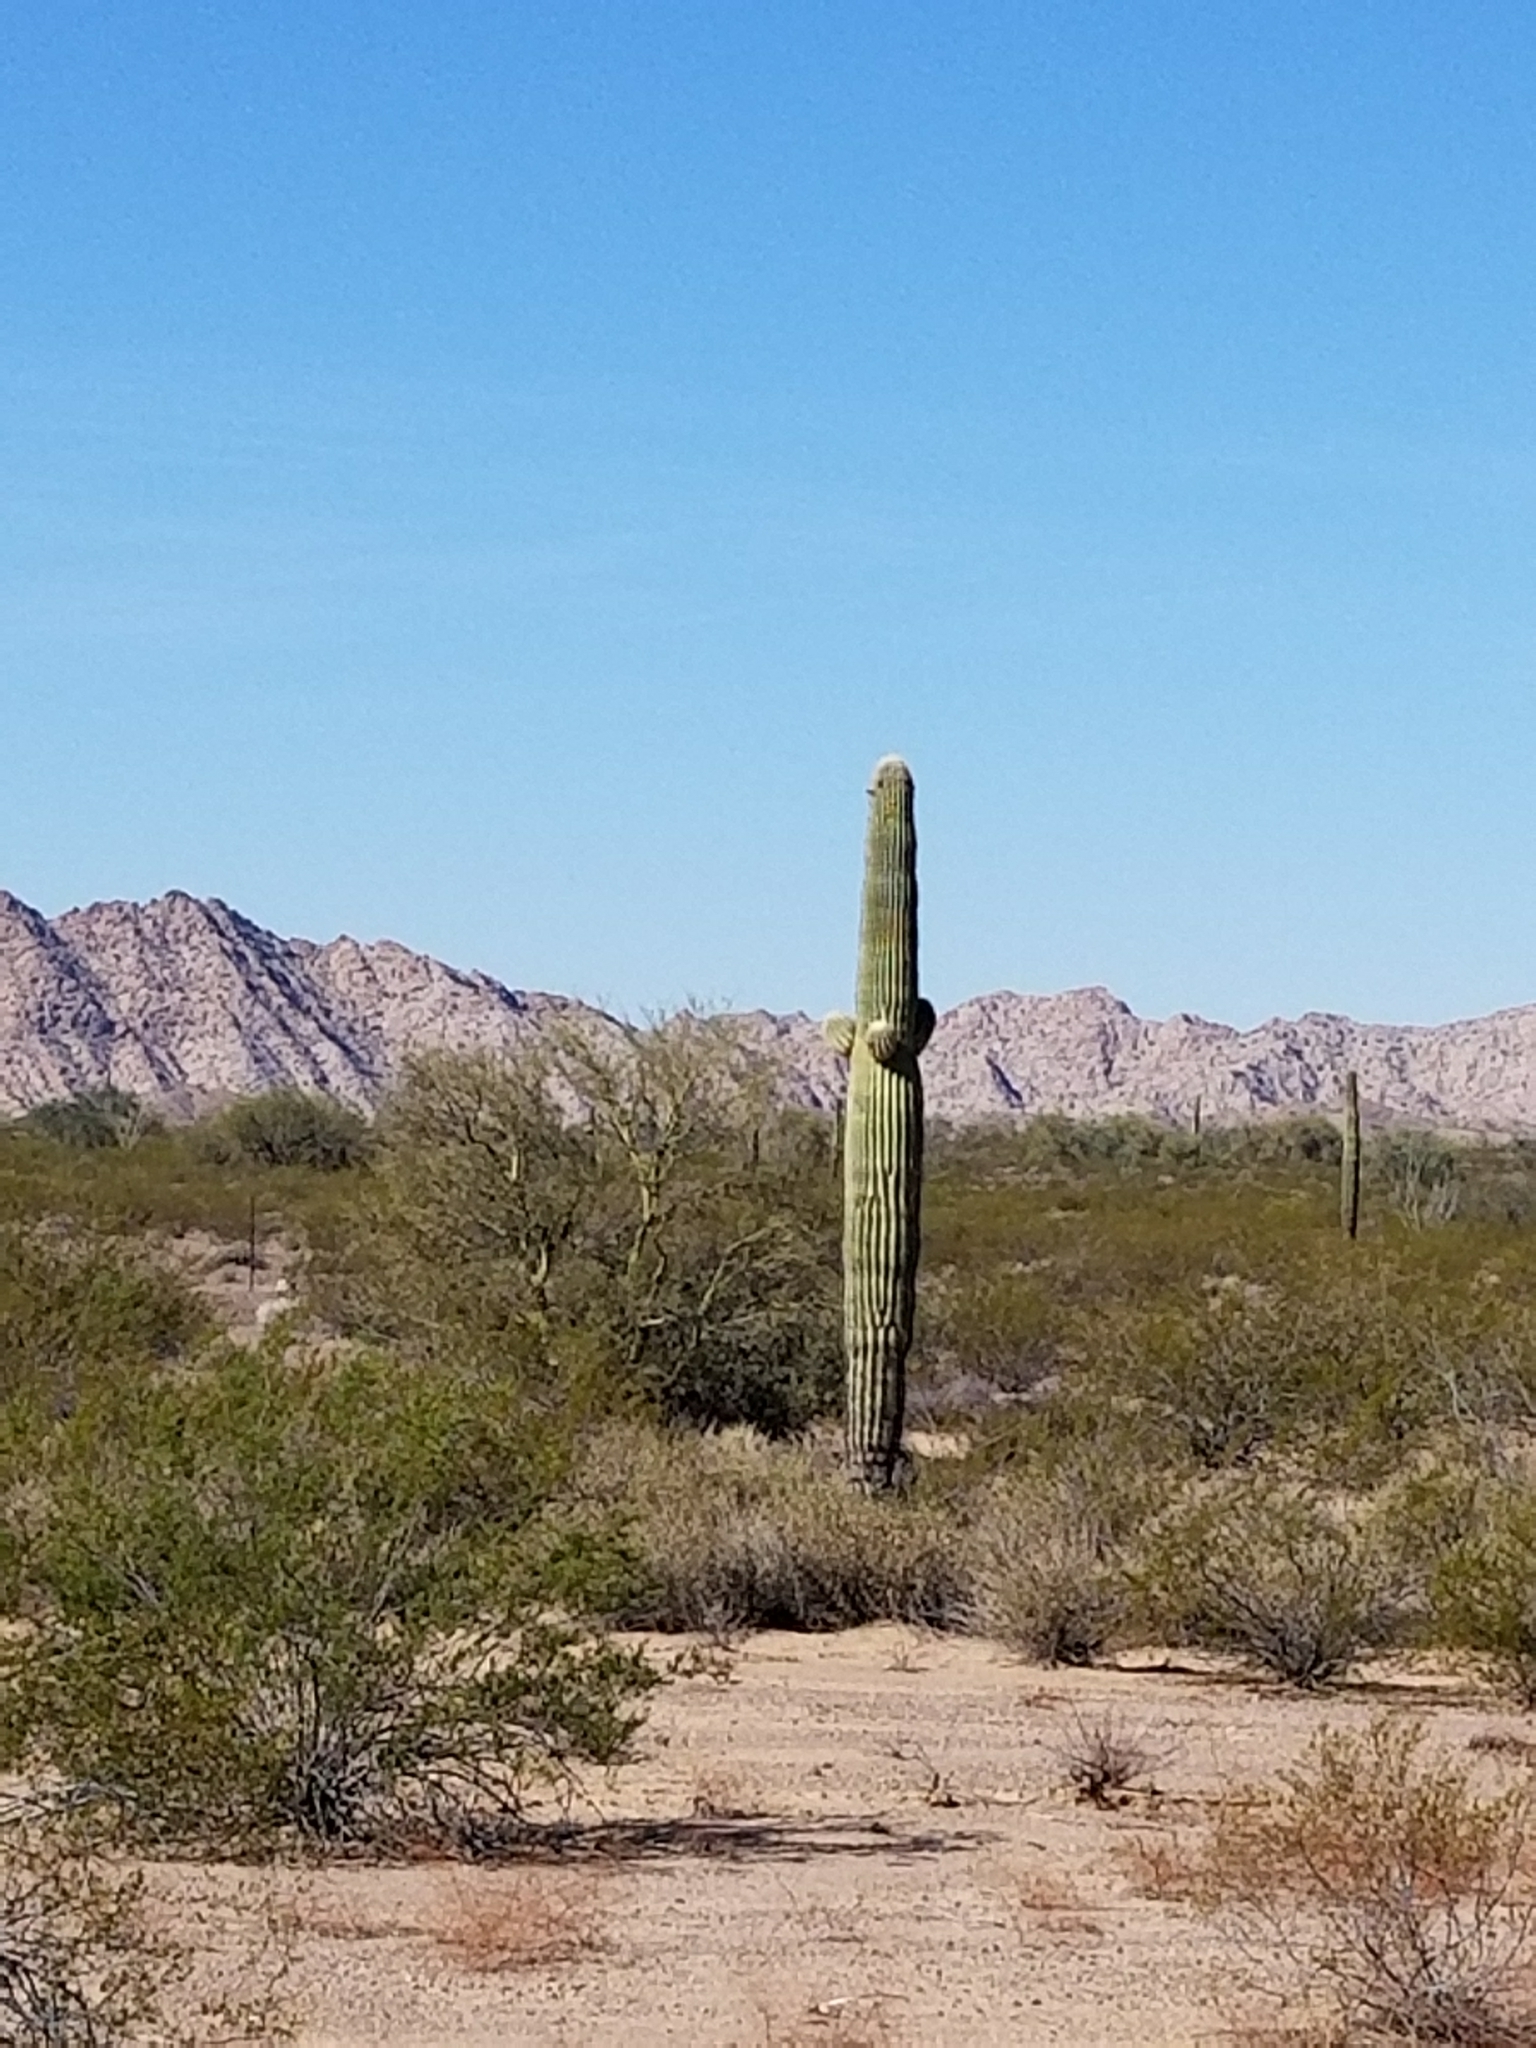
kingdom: Plantae
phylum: Tracheophyta
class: Magnoliopsida
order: Caryophyllales
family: Cactaceae
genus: Carnegiea
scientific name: Carnegiea gigantea
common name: Saguaro
